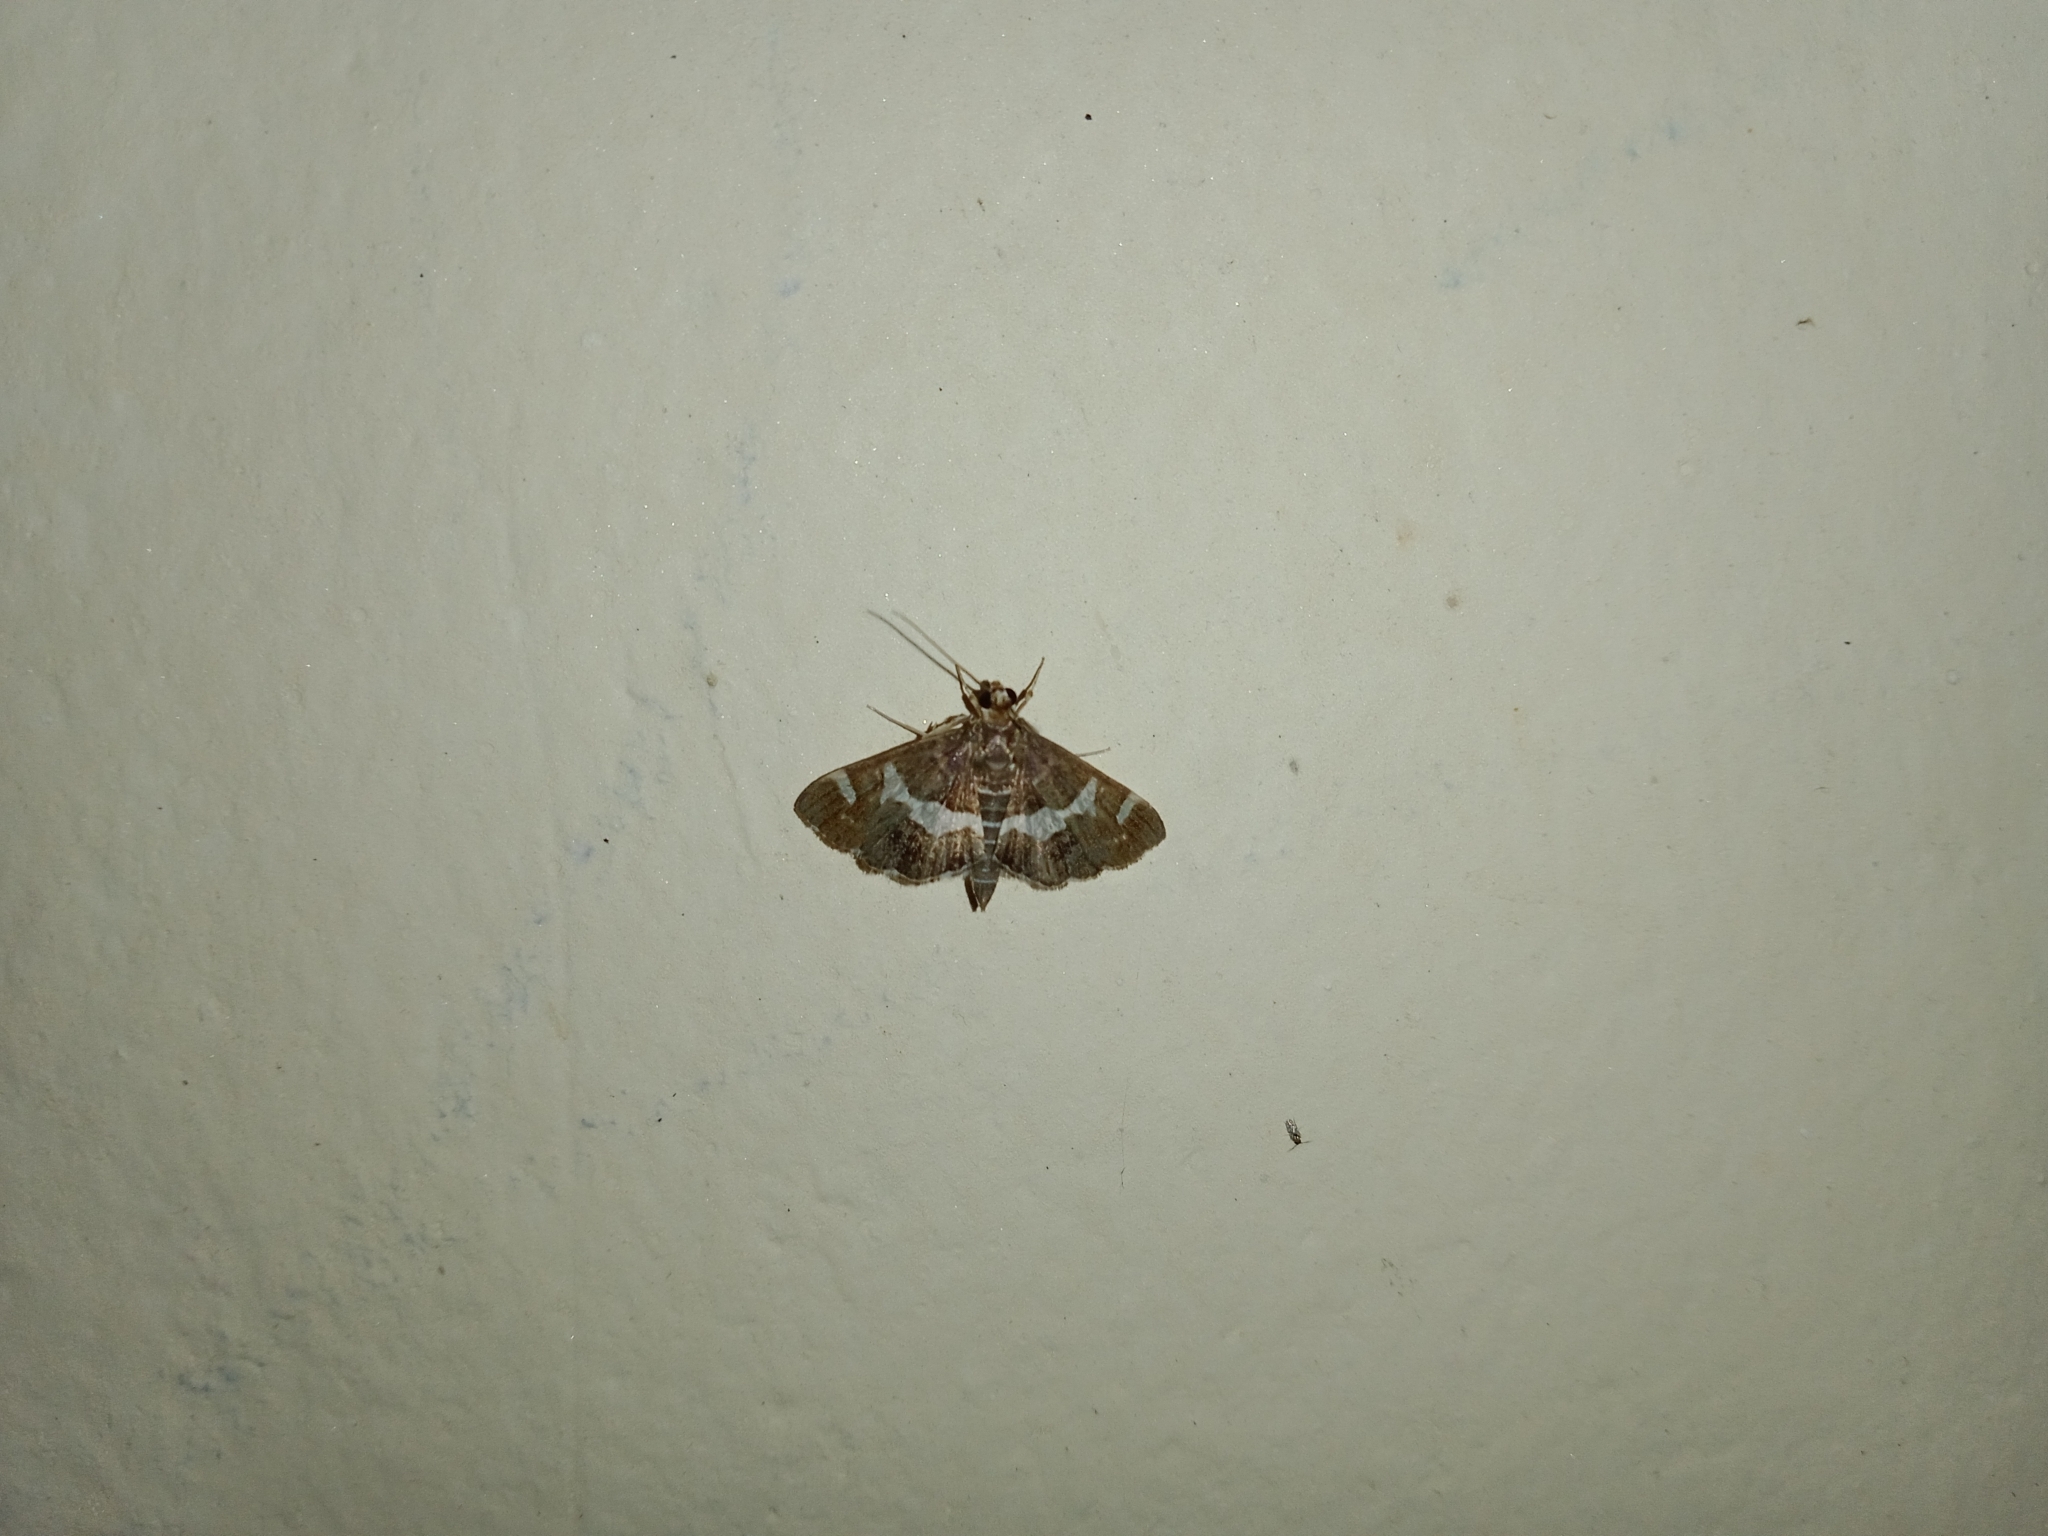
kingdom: Animalia
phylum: Arthropoda
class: Insecta
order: Lepidoptera
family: Crambidae
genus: Spoladea
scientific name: Spoladea recurvalis
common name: Beet webworm moth
